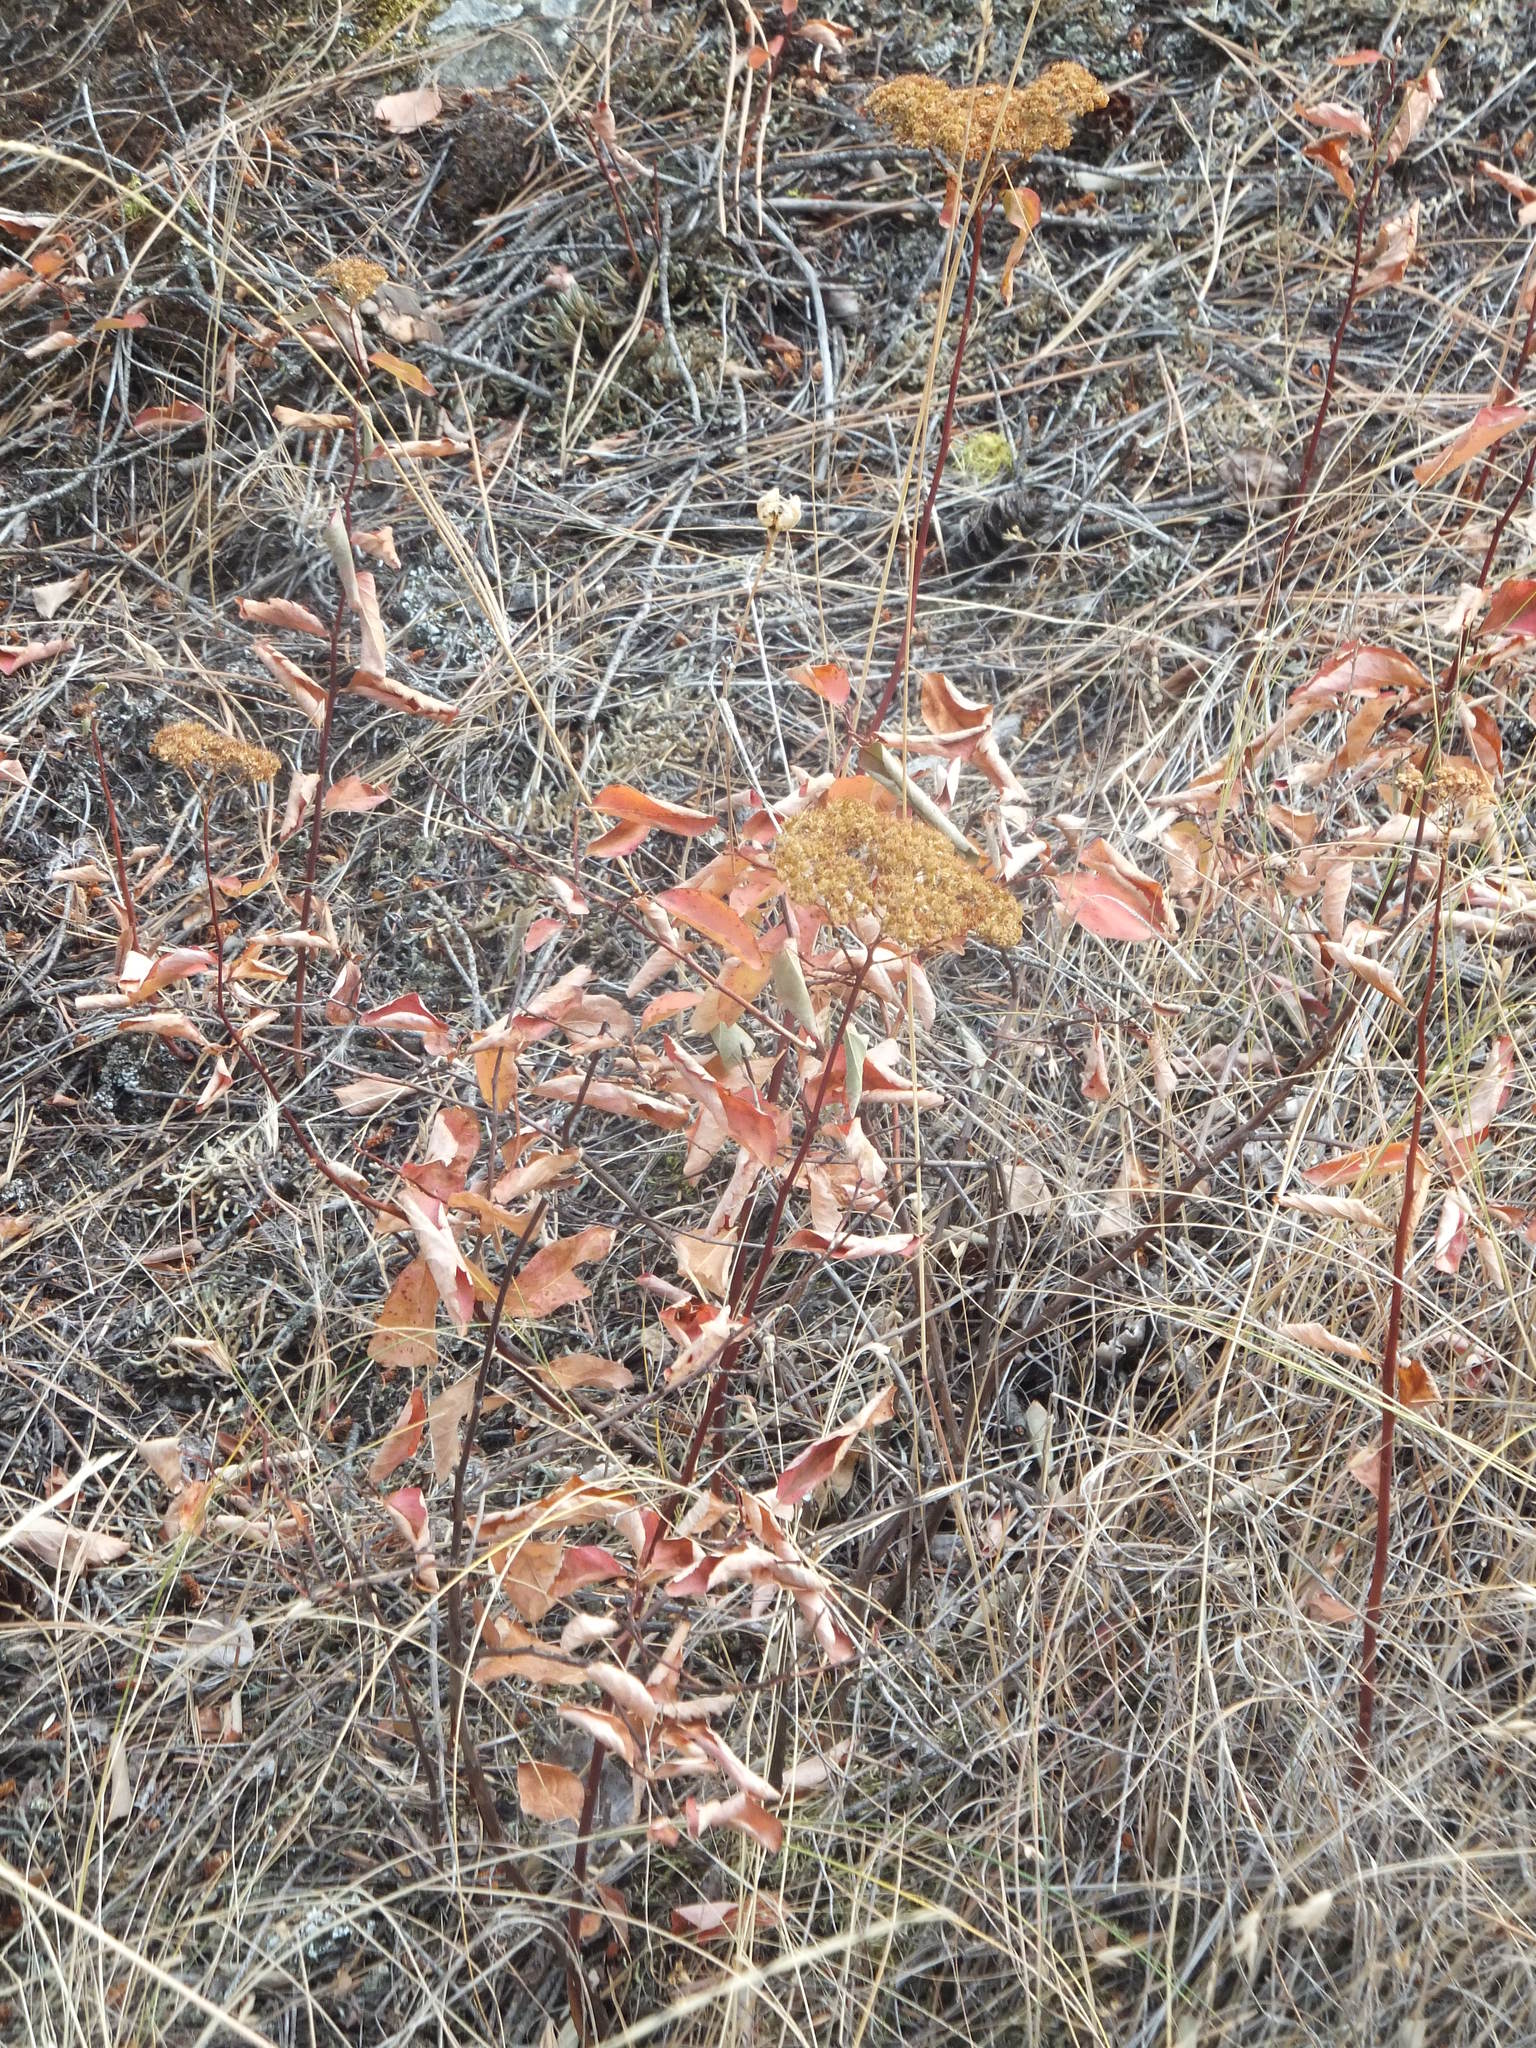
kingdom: Plantae
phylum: Tracheophyta
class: Magnoliopsida
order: Rosales
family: Rosaceae
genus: Spiraea
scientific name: Spiraea lucida
